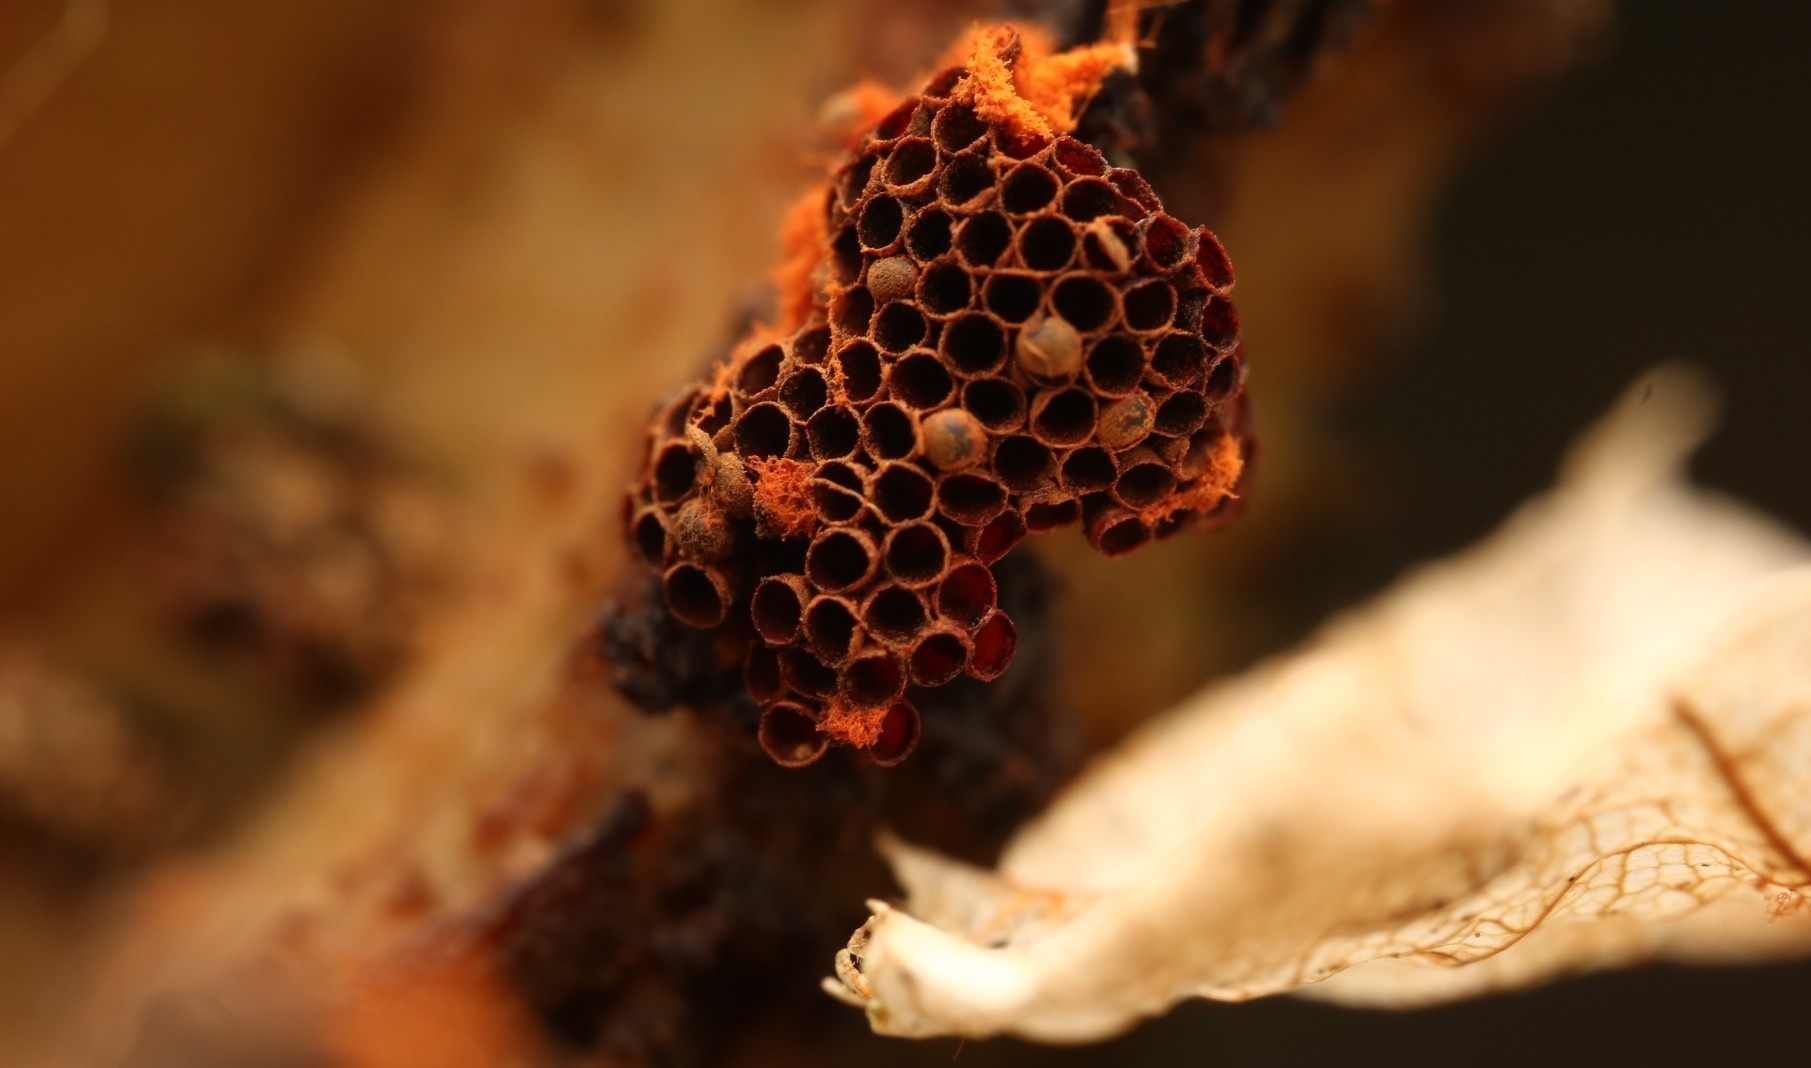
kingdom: Protozoa
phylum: Mycetozoa
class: Myxomycetes
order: Trichiales
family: Trichiaceae
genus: Metatrichia
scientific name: Metatrichia vesparia
